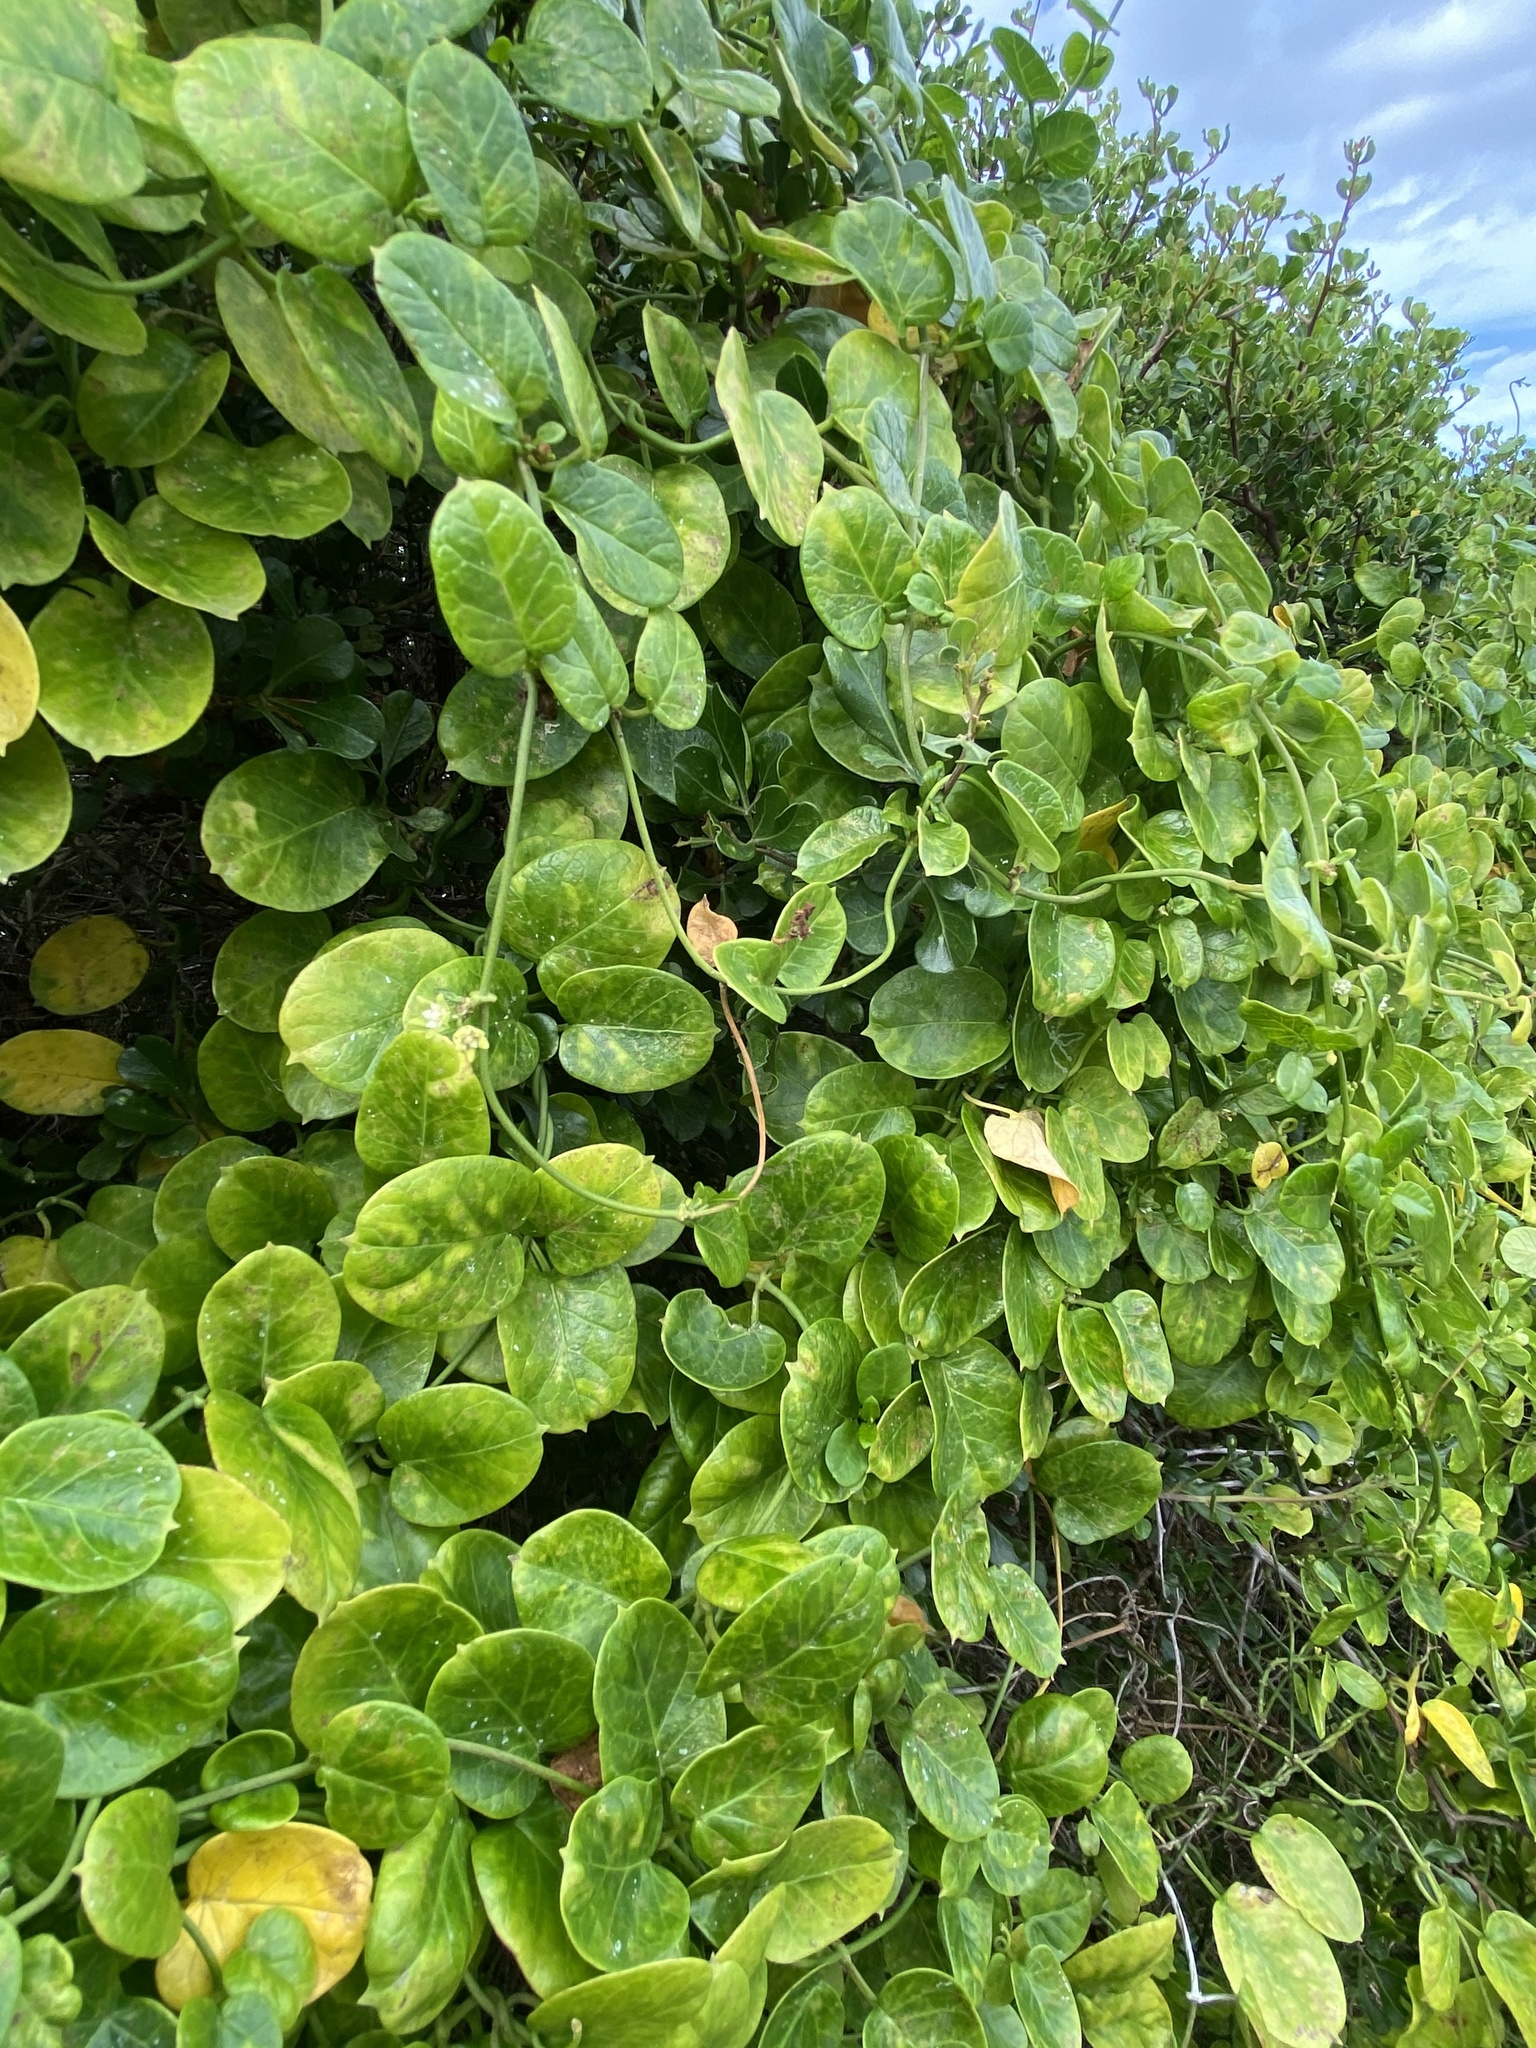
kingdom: Plantae
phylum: Tracheophyta
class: Magnoliopsida
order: Gentianales
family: Apocynaceae
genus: Cynanchum
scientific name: Cynanchum obtusifolium
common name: Monkey-rope
